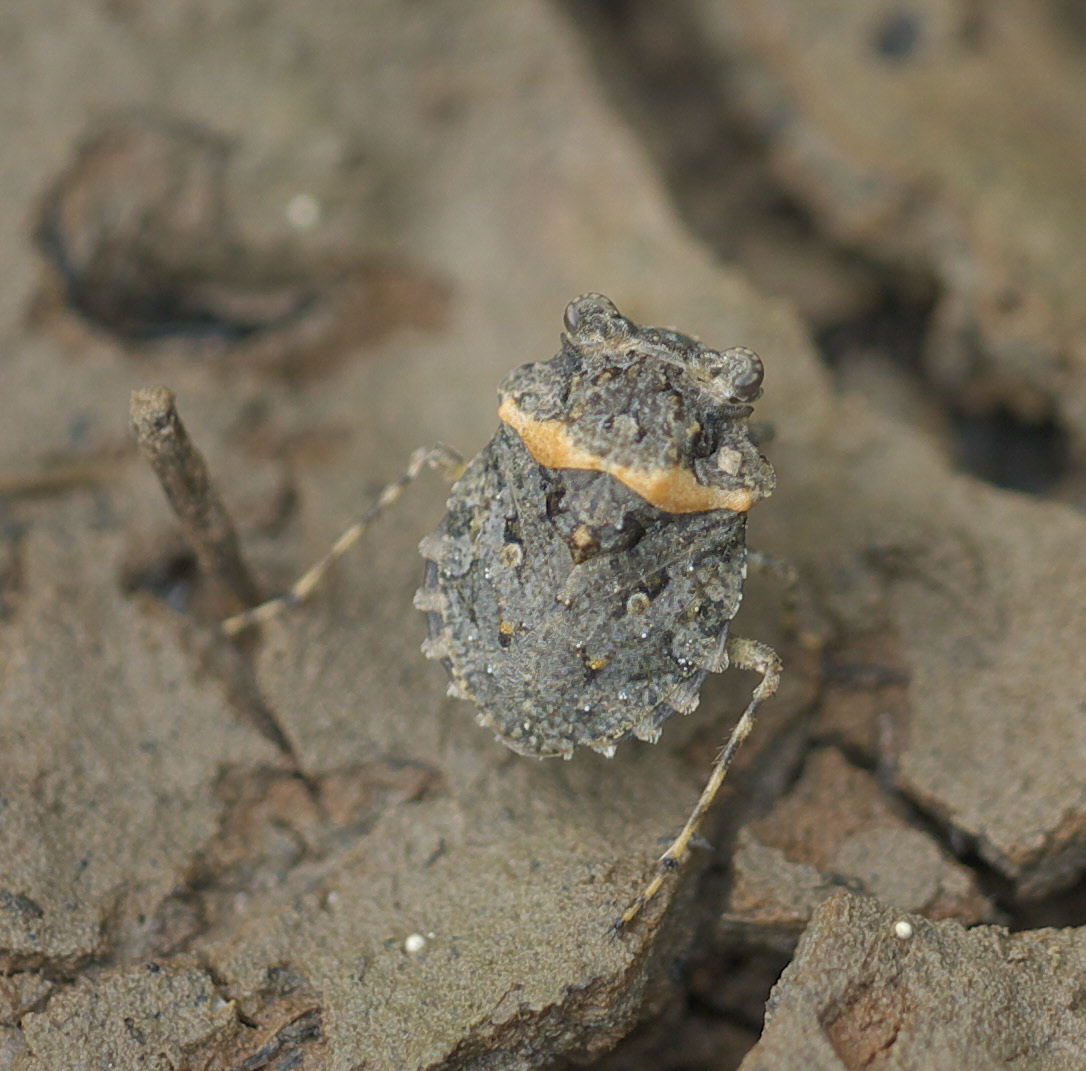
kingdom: Animalia
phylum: Arthropoda
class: Insecta
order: Hemiptera
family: Gelastocoridae
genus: Gelastocoris
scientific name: Gelastocoris oculatus
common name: Toad bug
